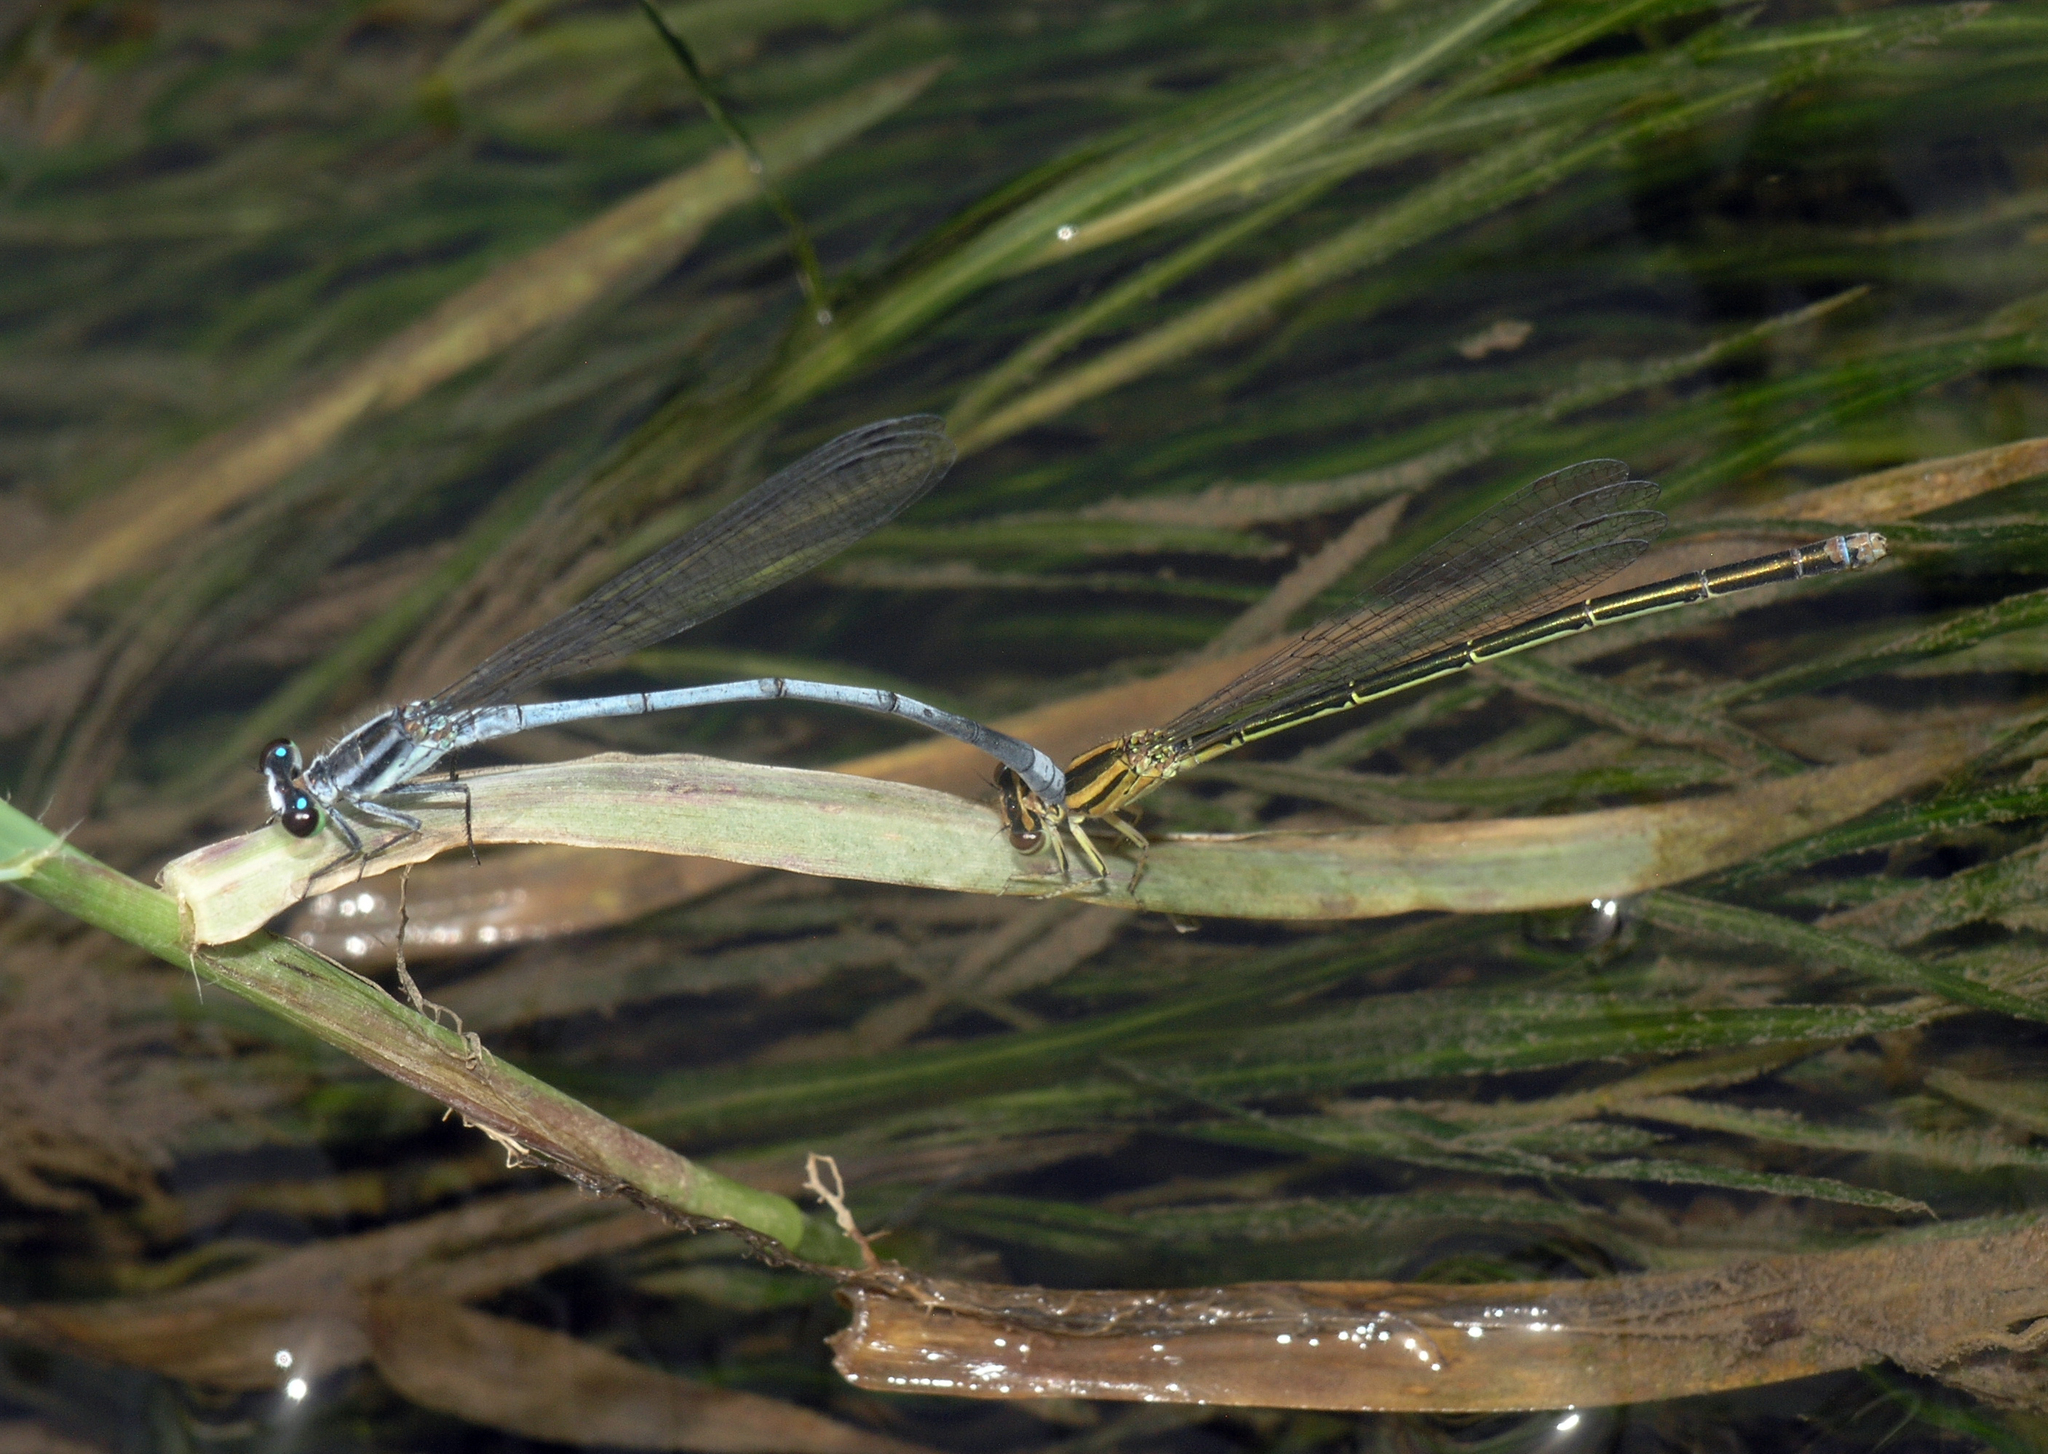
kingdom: Animalia
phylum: Arthropoda
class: Insecta
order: Odonata
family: Coenagrionidae
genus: Pseudagrion
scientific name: Pseudagrion kersteni
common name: Powder-faced sprite
